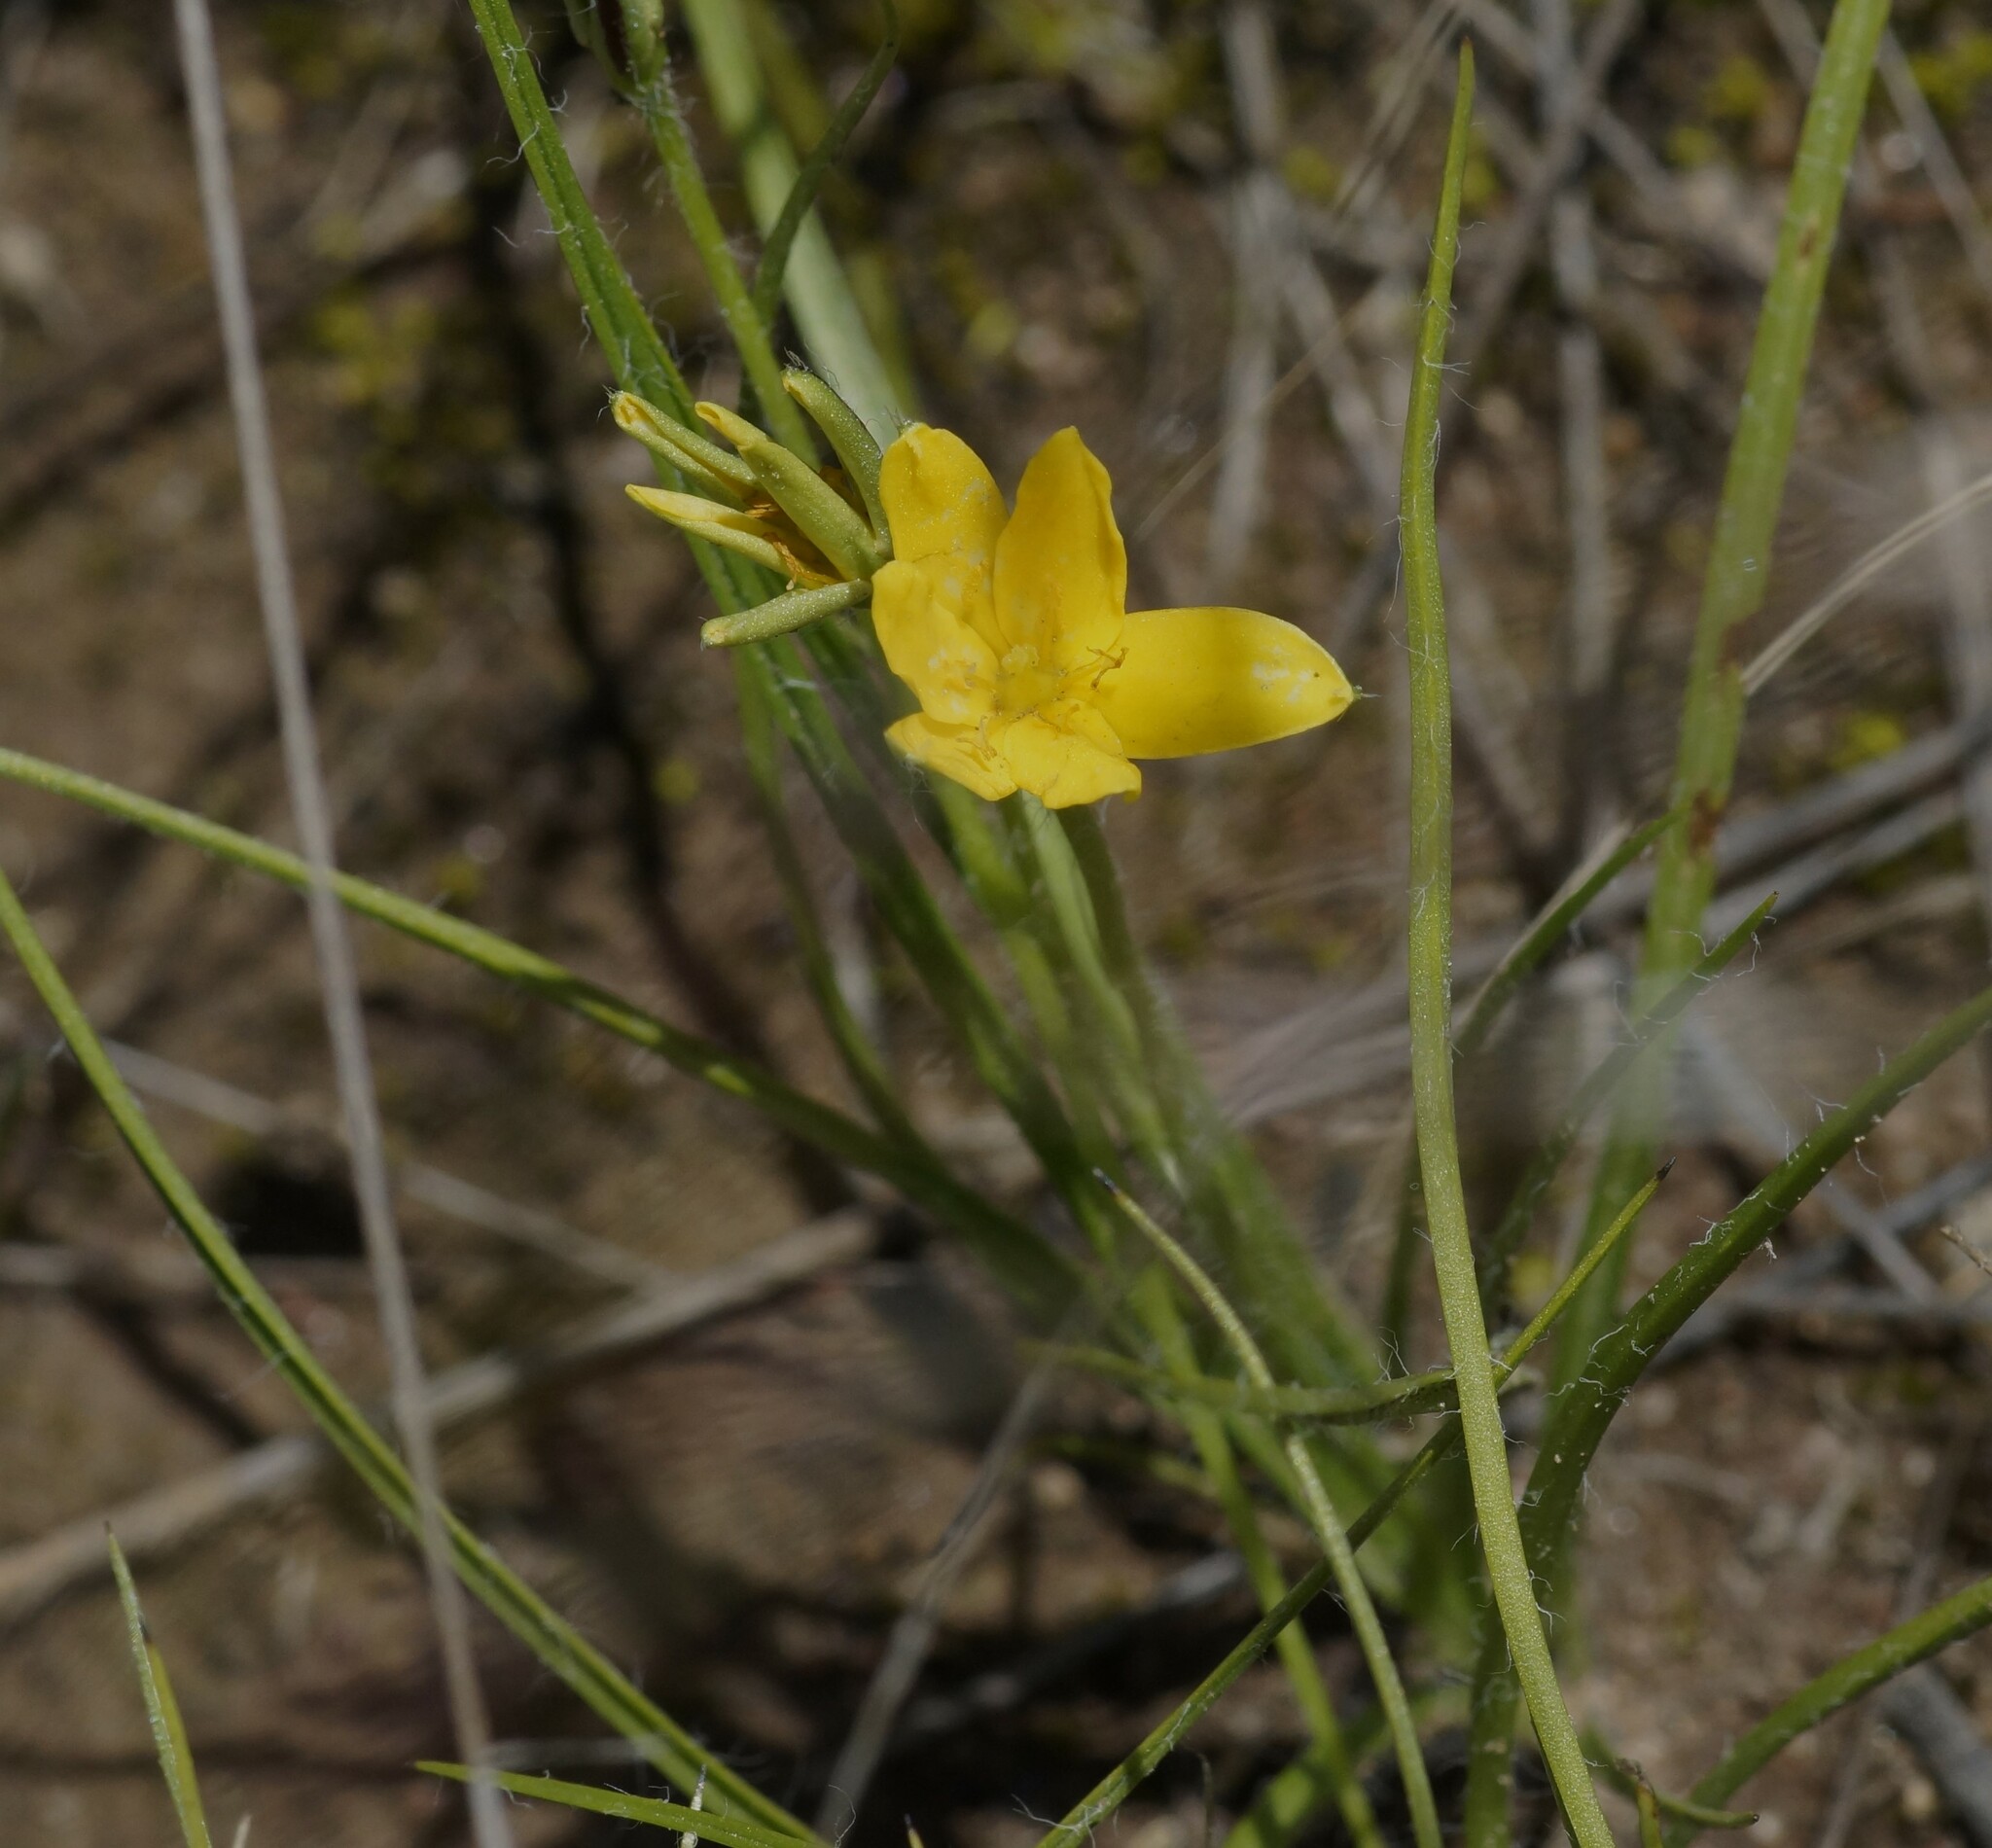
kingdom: Plantae
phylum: Tracheophyta
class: Liliopsida
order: Asparagales
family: Hypoxidaceae
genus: Hypoxis
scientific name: Hypoxis hygrometrica
